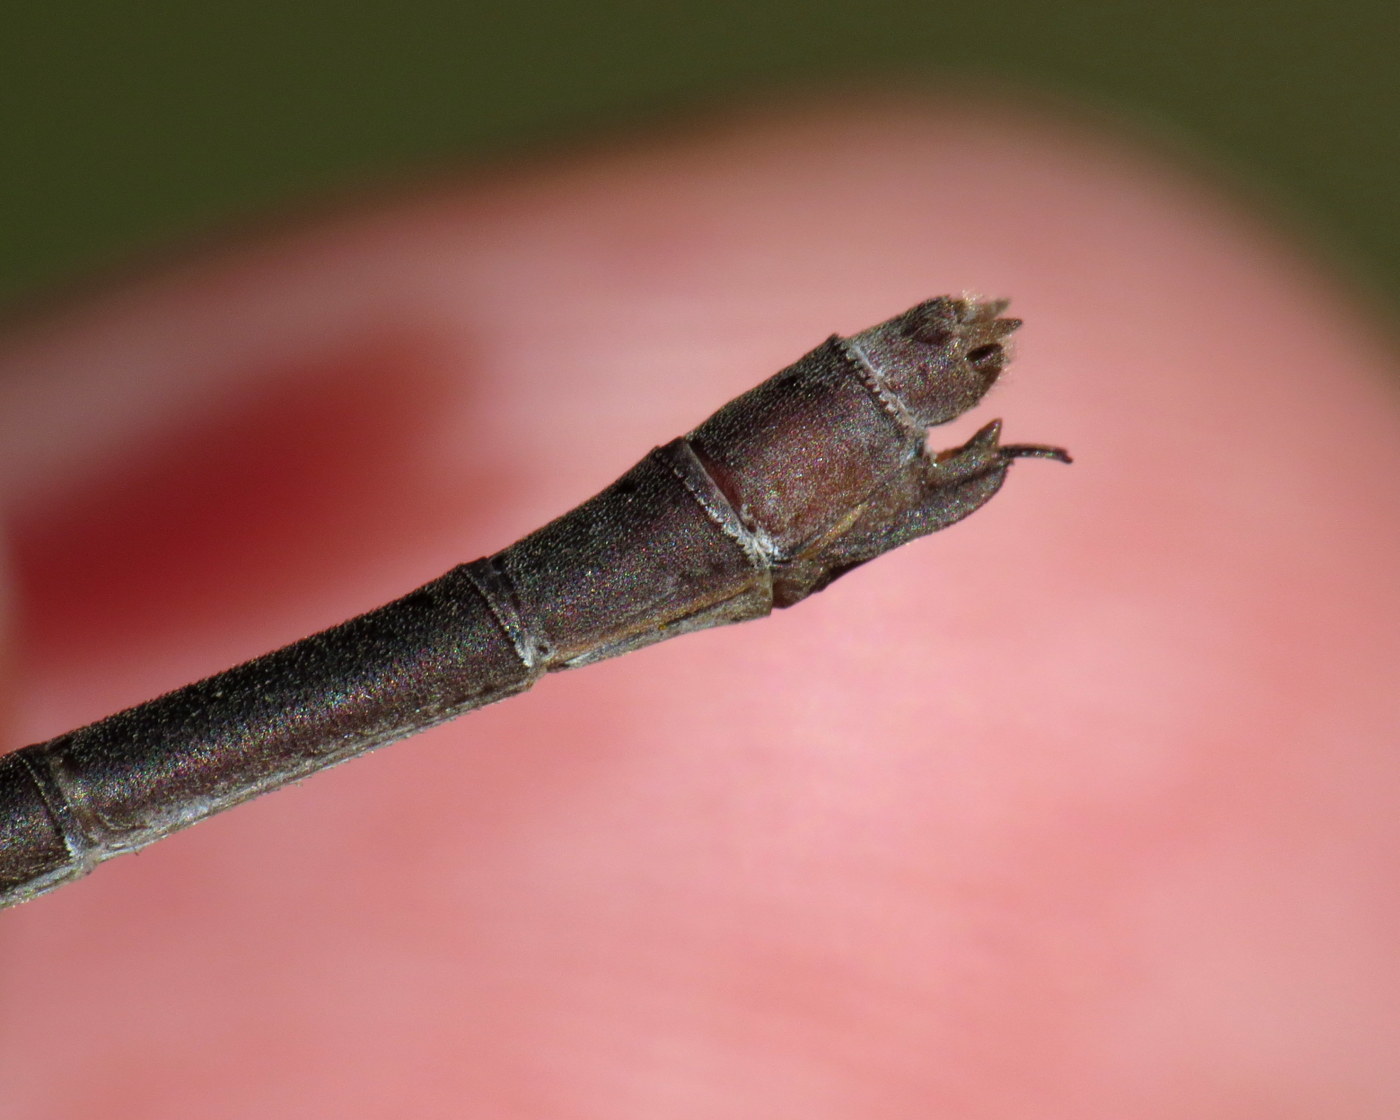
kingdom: Animalia
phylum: Arthropoda
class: Insecta
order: Odonata
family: Lestidae
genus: Lestes
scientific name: Lestes vigilax
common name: Swamp spreadwing
